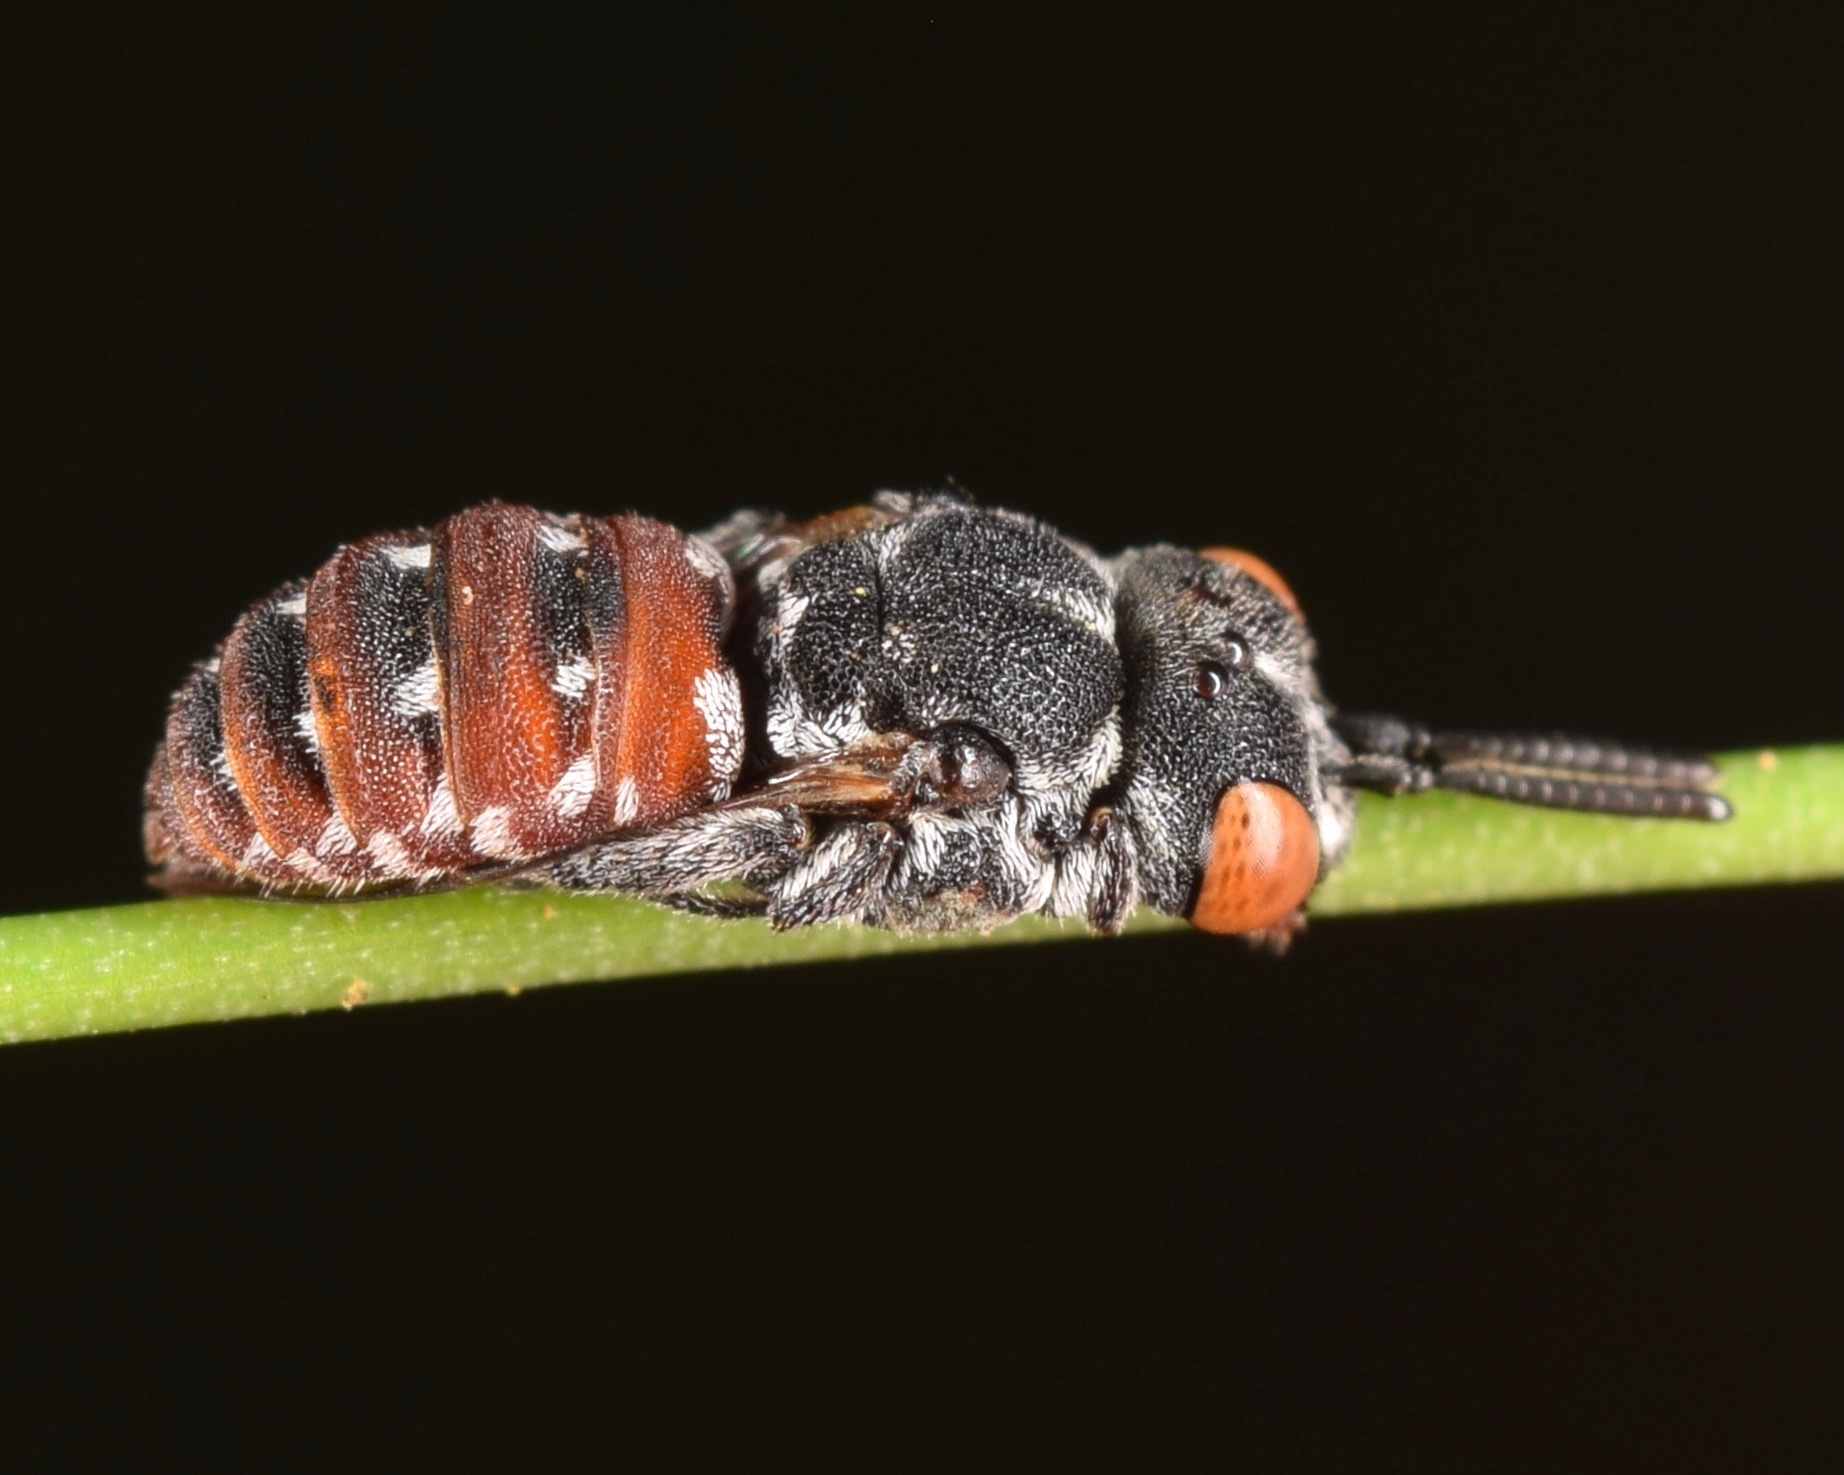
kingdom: Animalia
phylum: Arthropoda
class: Insecta
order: Hymenoptera
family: Apidae
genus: Holcopasites
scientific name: Holcopasites calliopsidis
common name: Calliopsis cuckoo nomad bee
